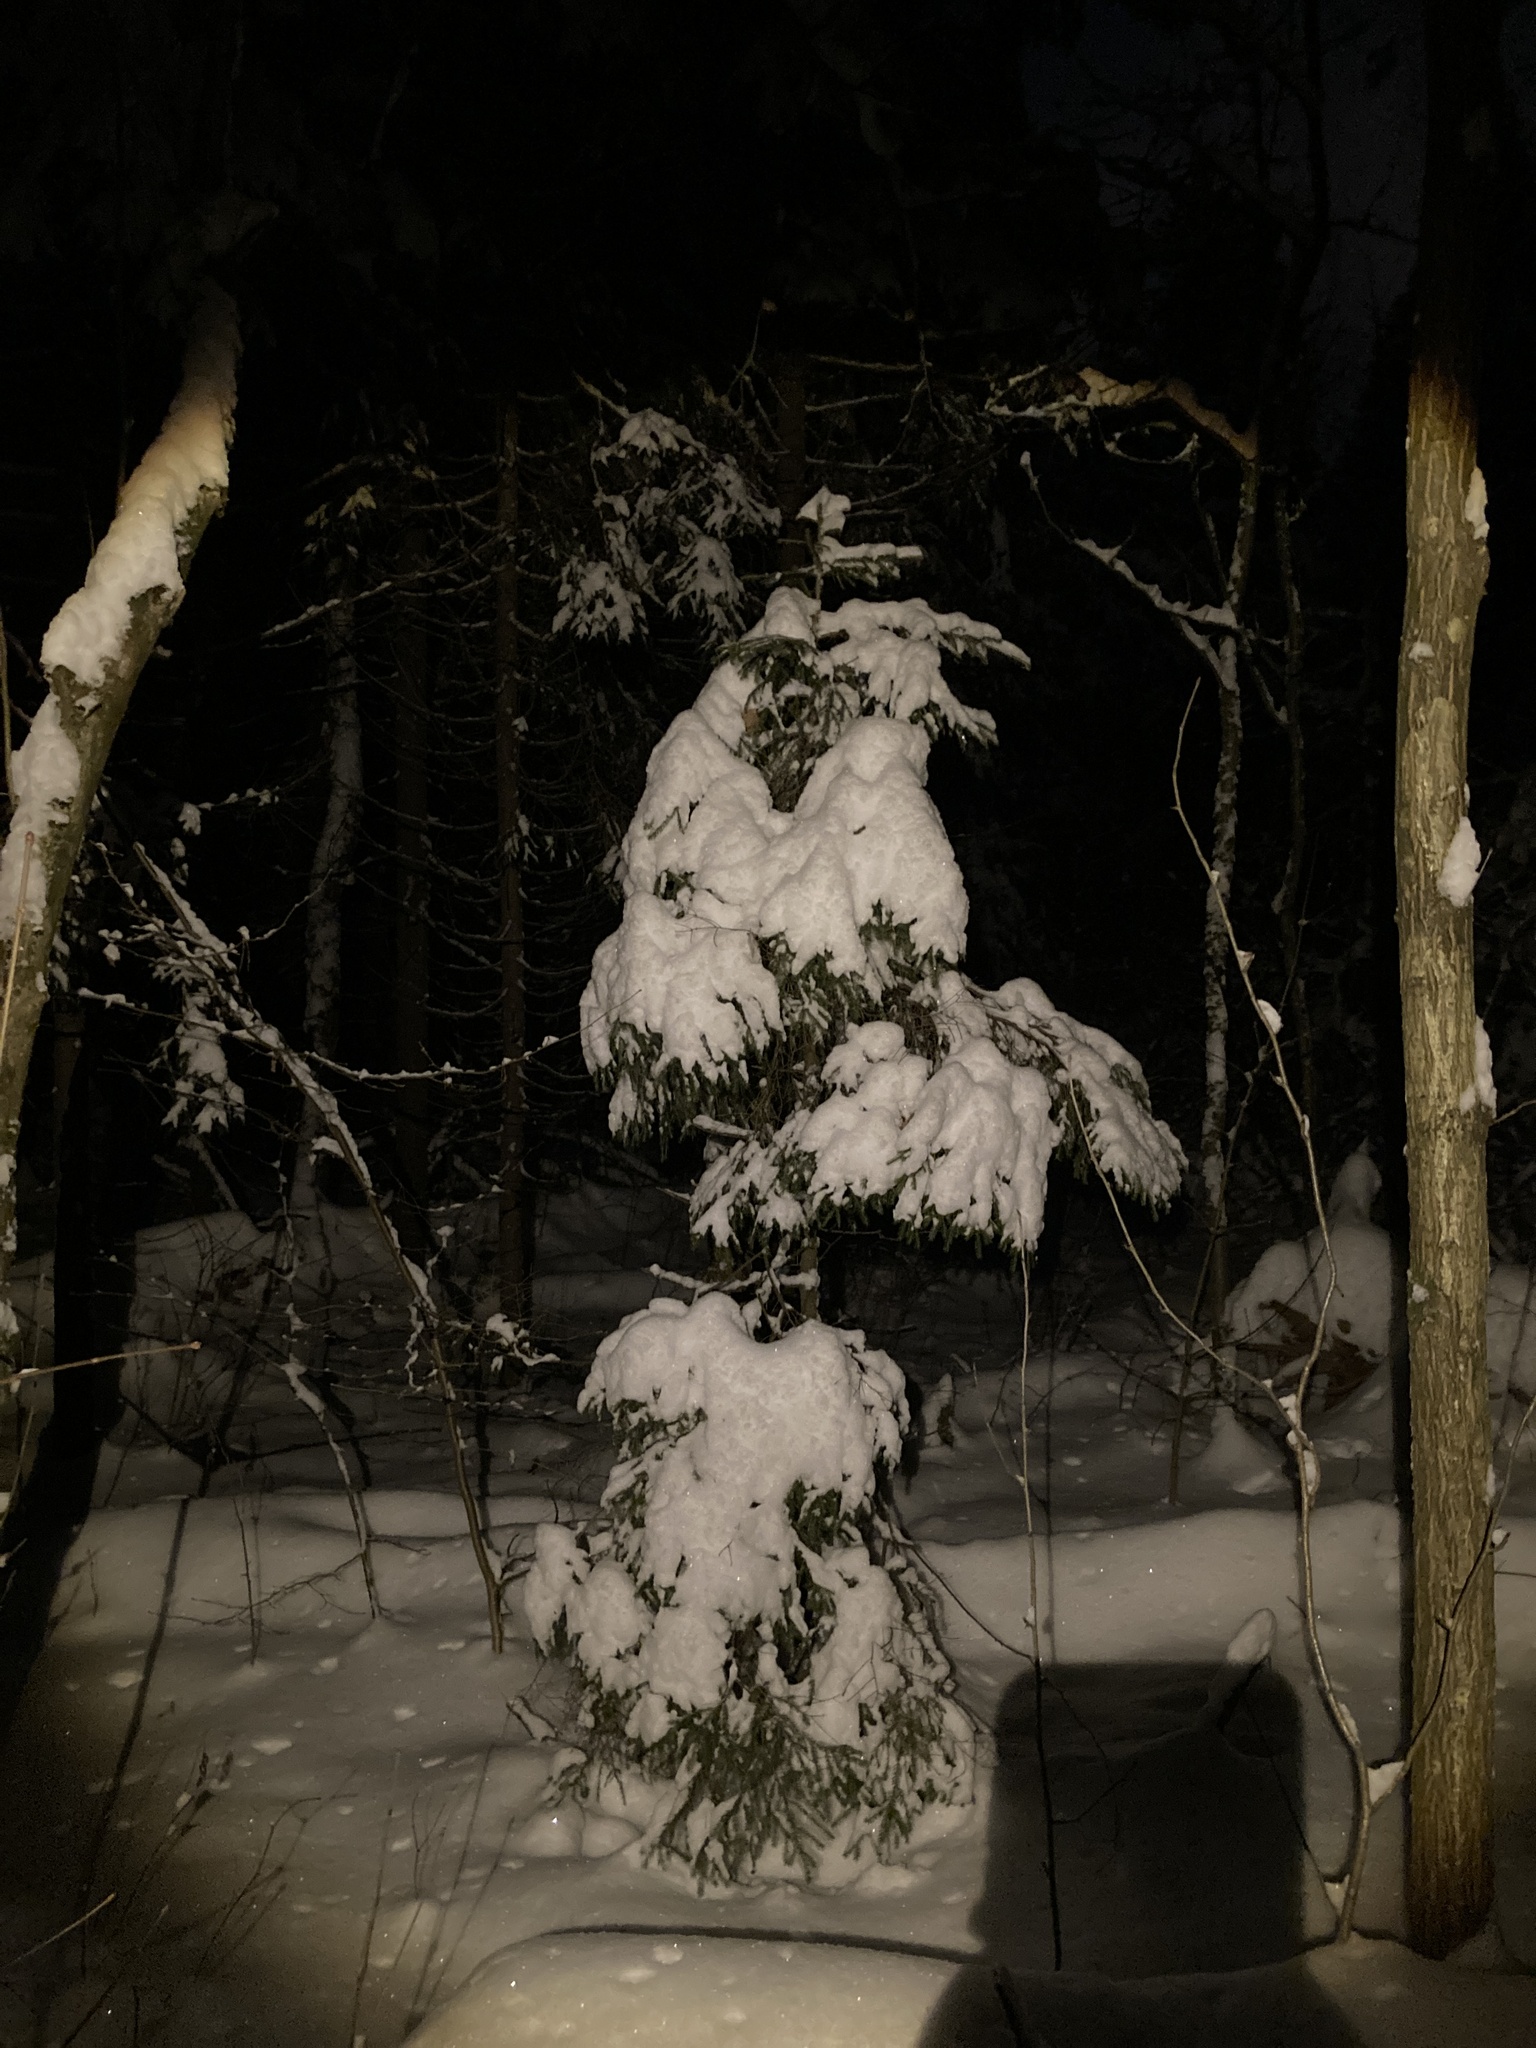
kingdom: Plantae
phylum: Tracheophyta
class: Pinopsida
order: Pinales
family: Pinaceae
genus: Picea
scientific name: Picea abies
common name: Norway spruce
